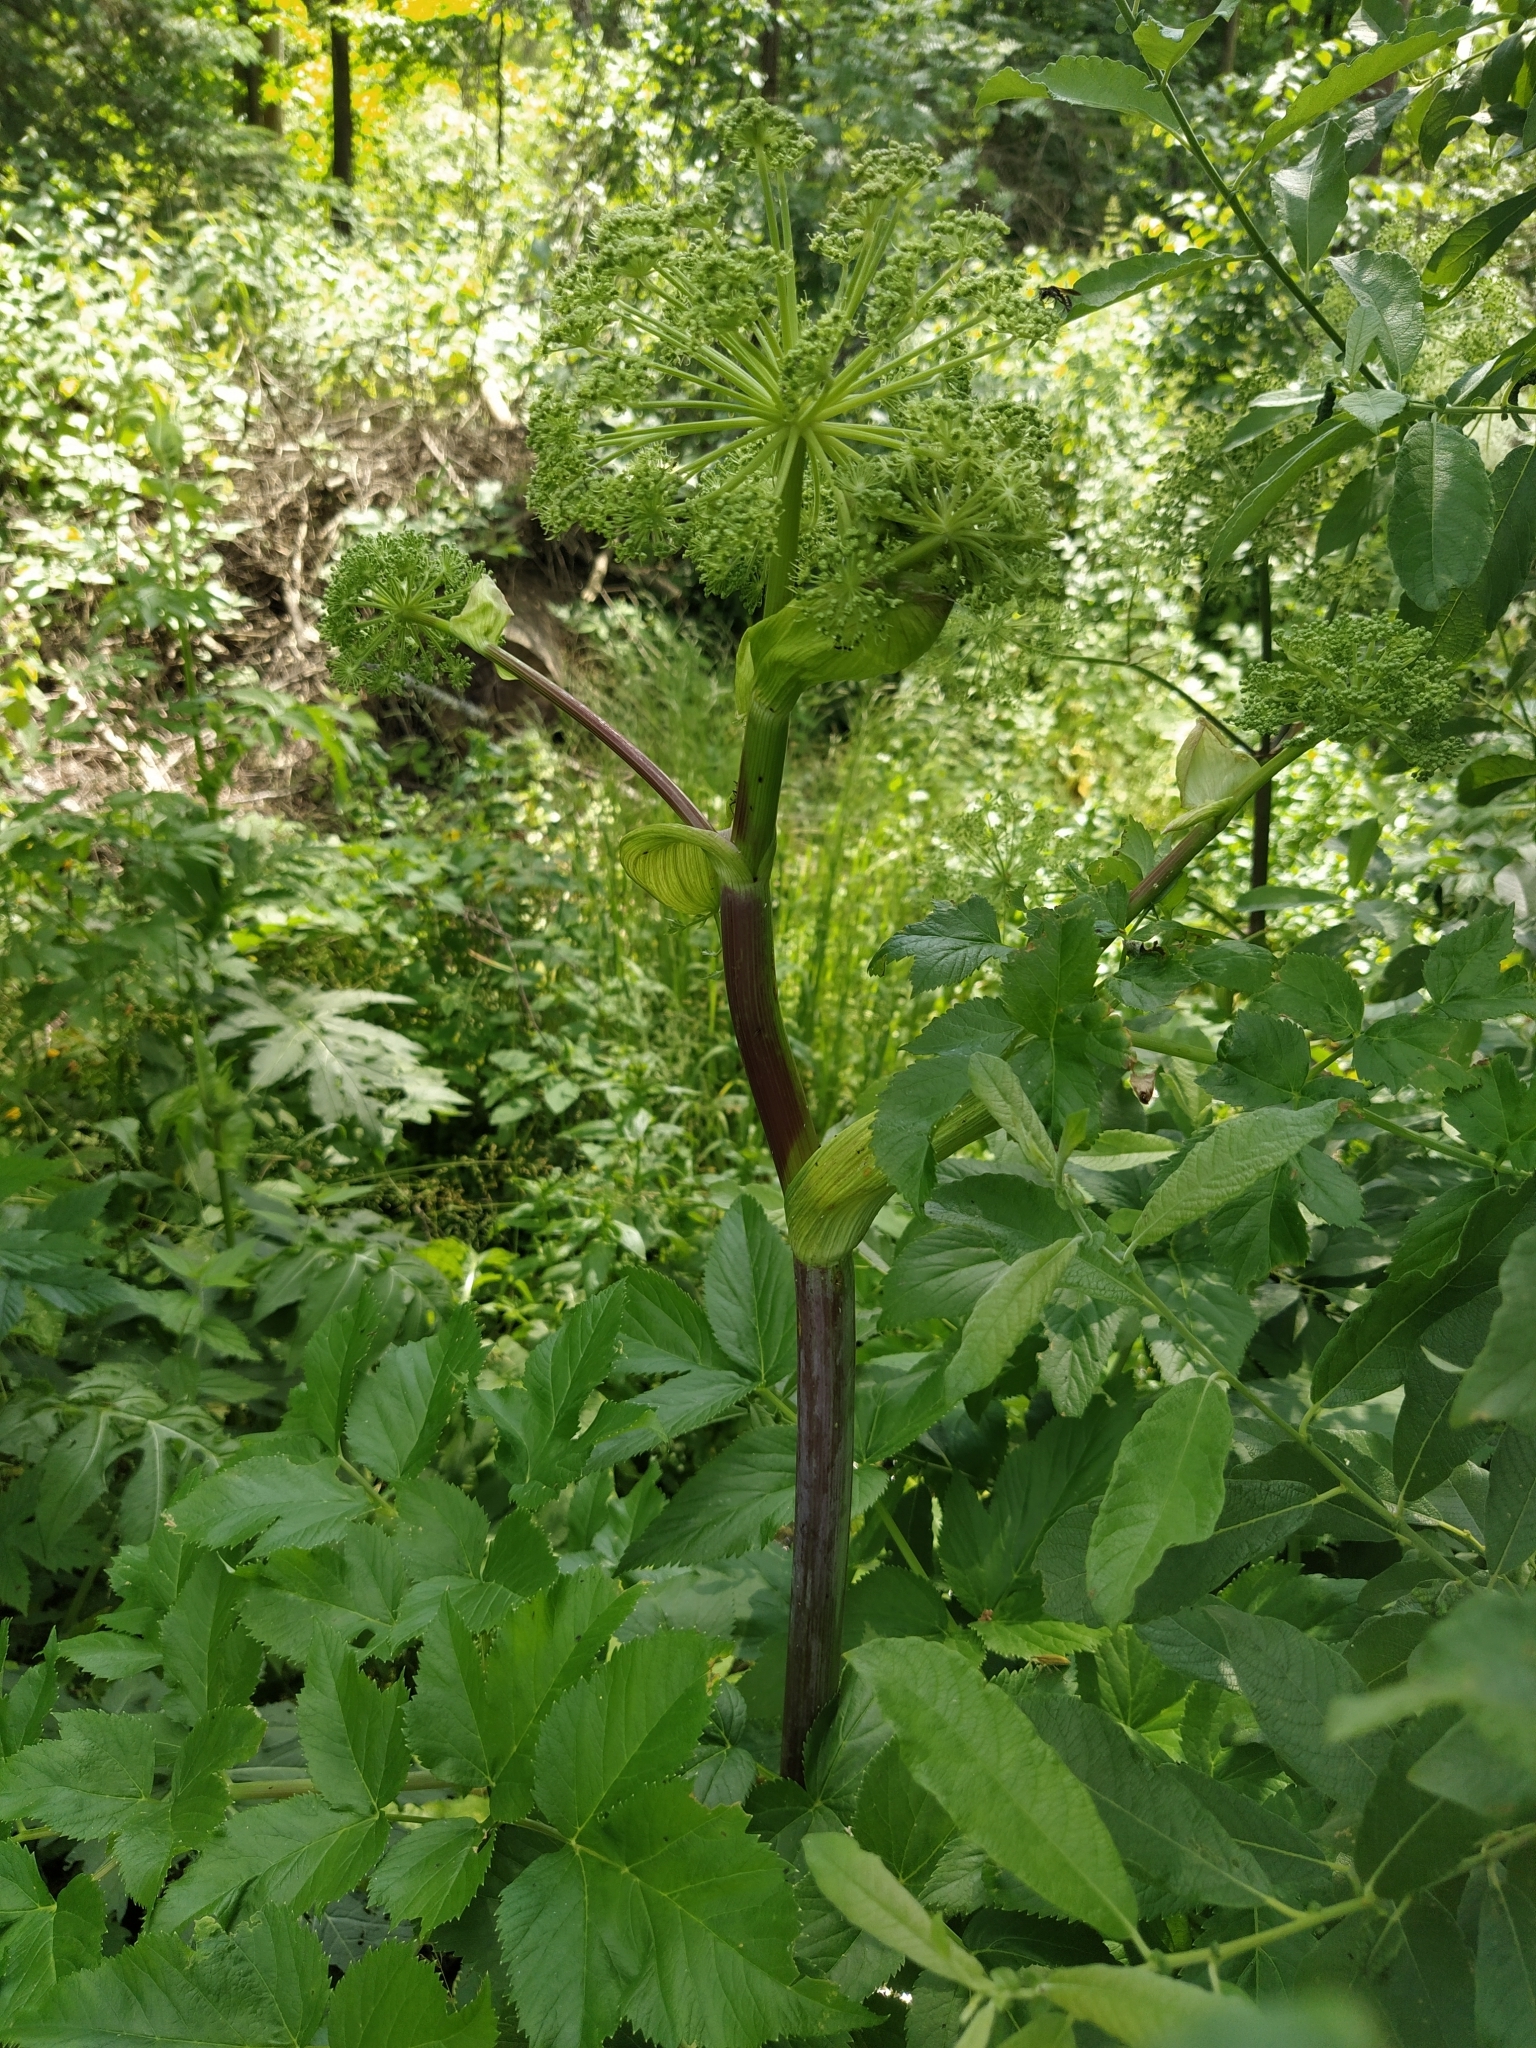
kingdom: Plantae
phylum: Tracheophyta
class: Magnoliopsida
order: Apiales
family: Apiaceae
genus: Angelica
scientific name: Angelica archangelica
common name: Garden angelica
